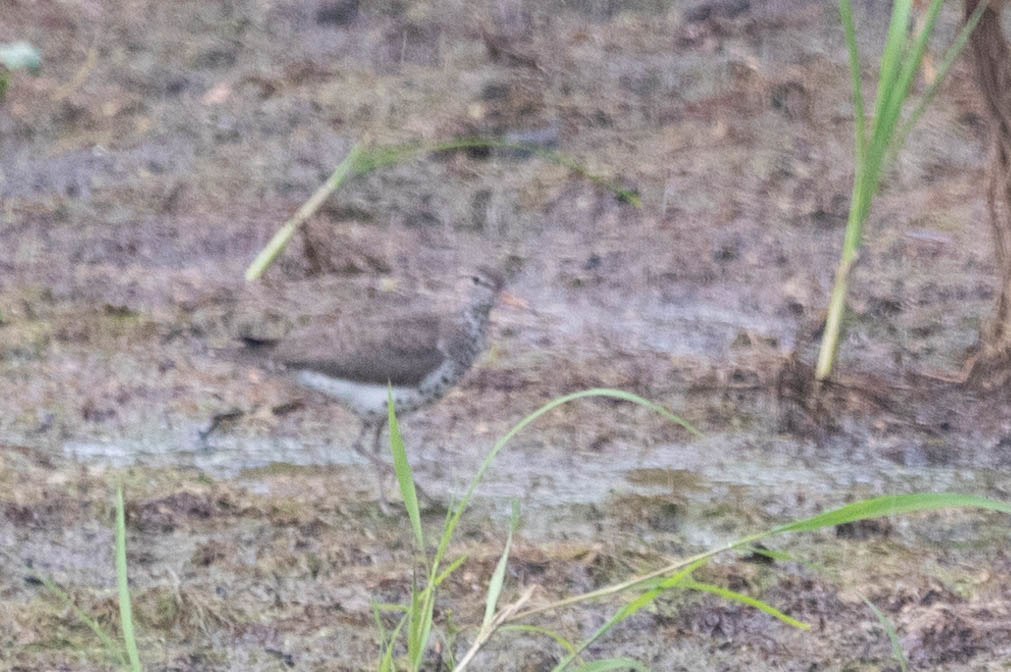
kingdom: Animalia
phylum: Chordata
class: Aves
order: Charadriiformes
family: Scolopacidae
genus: Actitis
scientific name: Actitis macularius
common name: Spotted sandpiper
